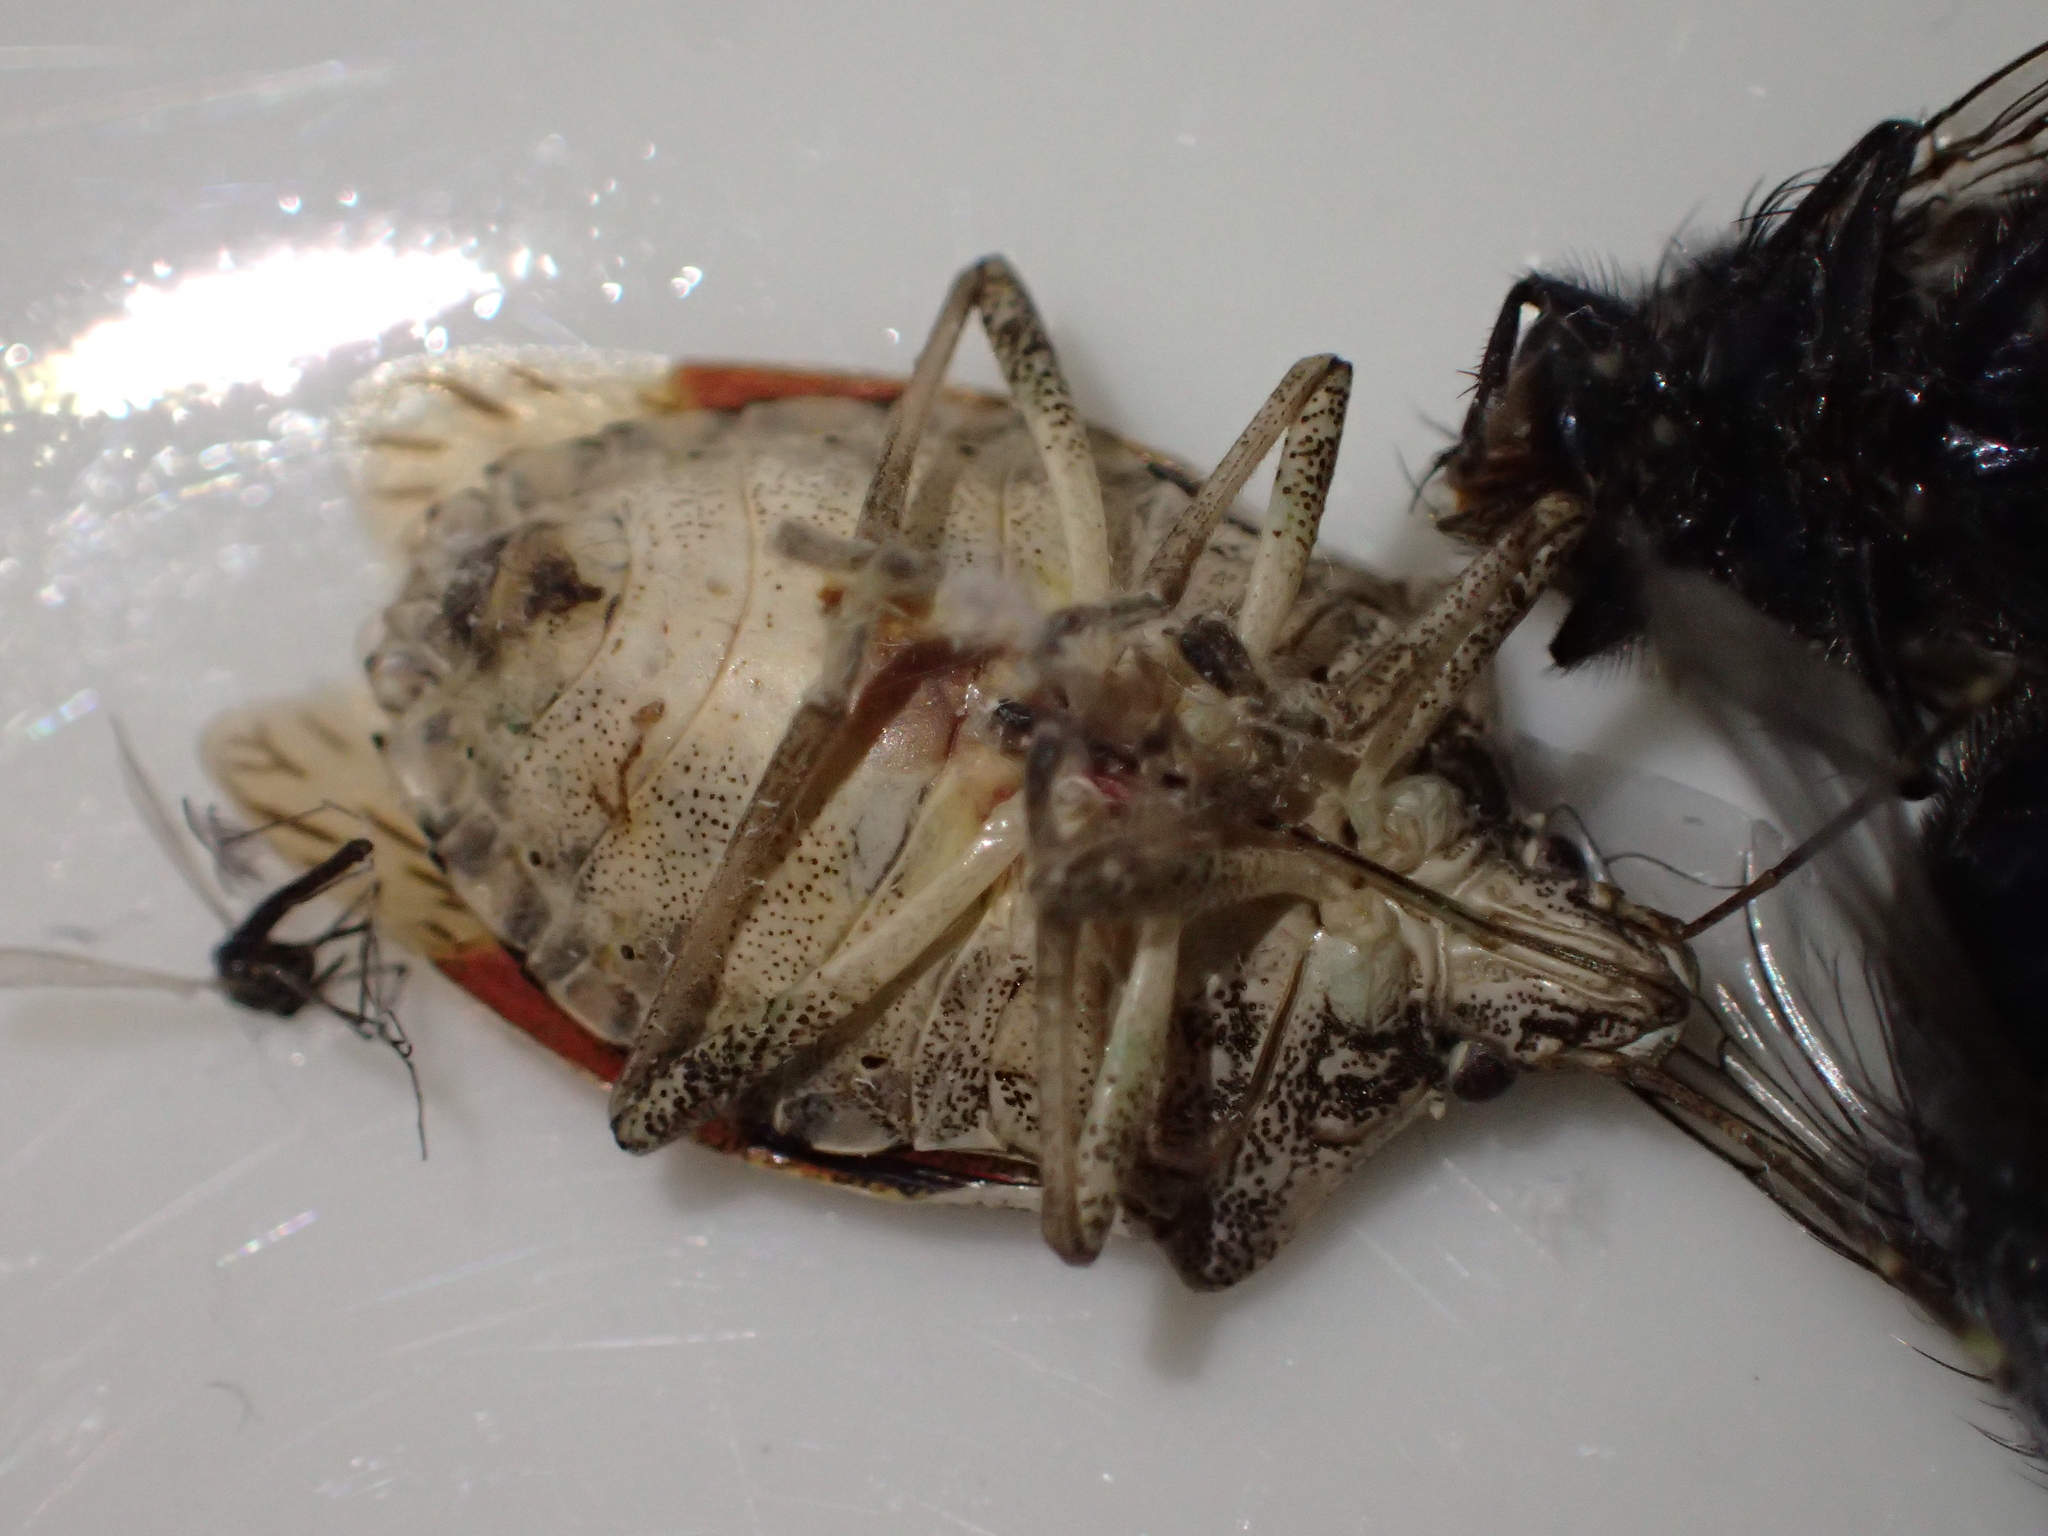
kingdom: Animalia
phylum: Arthropoda
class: Insecta
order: Hemiptera
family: Pentatomidae
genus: Halyomorpha
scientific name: Halyomorpha halys
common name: Brown marmorated stink bug
